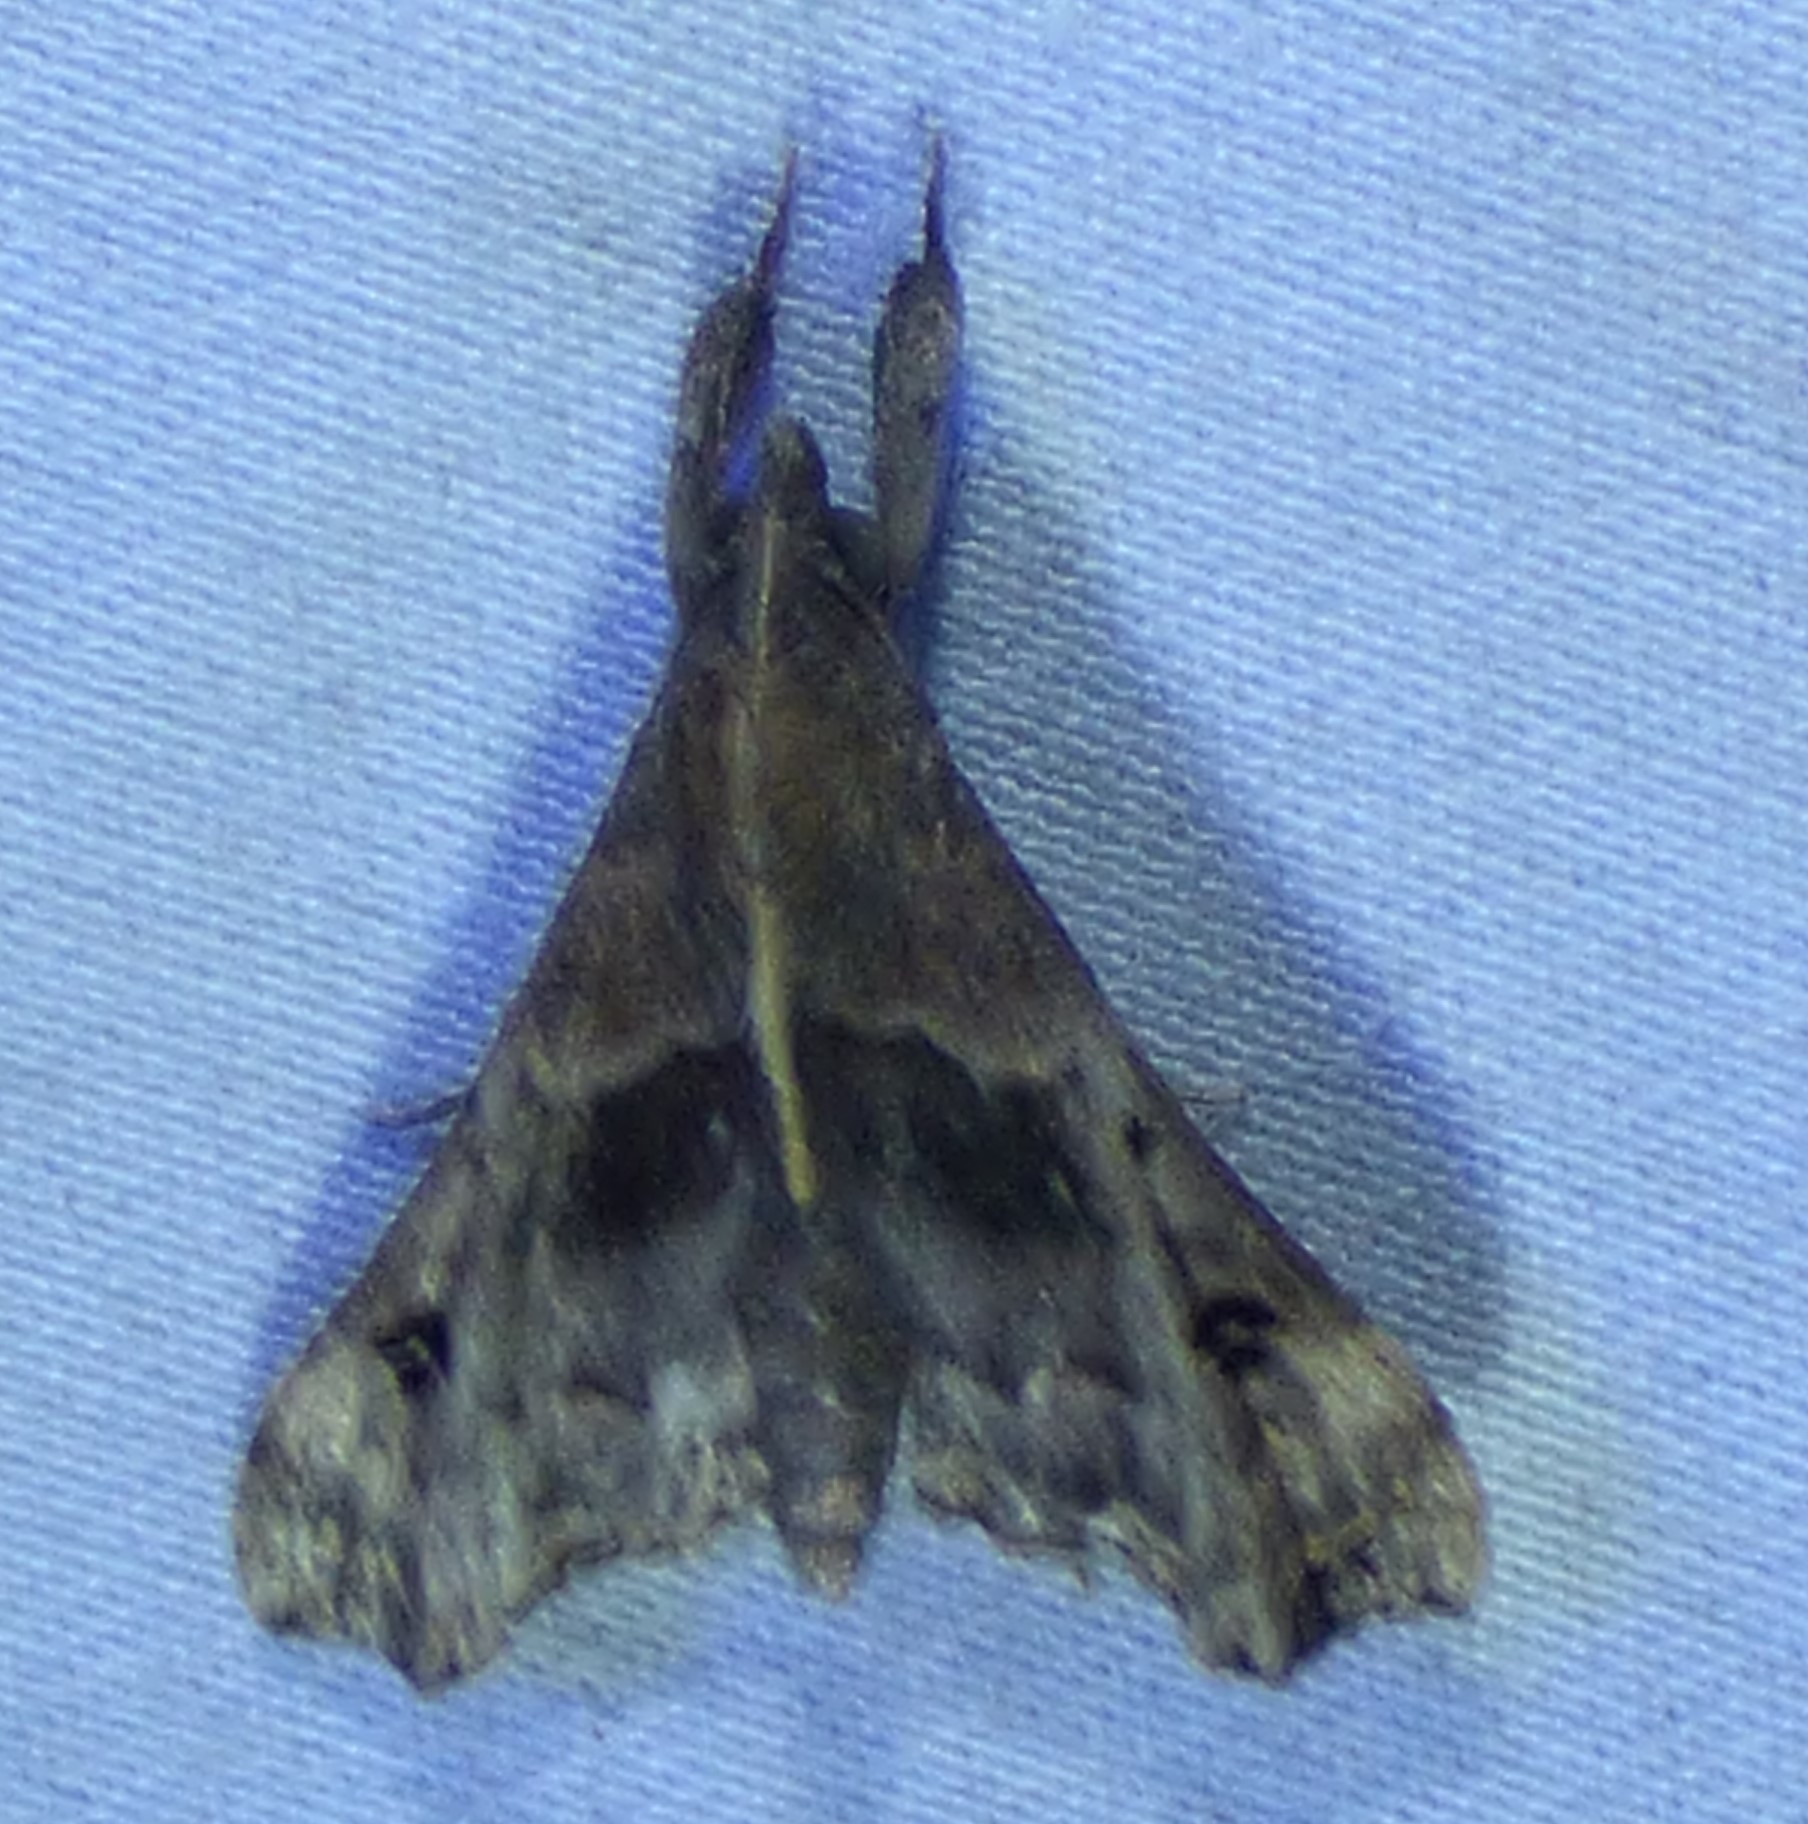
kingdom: Animalia
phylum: Arthropoda
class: Insecta
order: Lepidoptera
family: Erebidae
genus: Palthis
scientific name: Palthis asopialis
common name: Faint-spotted palthis moth
